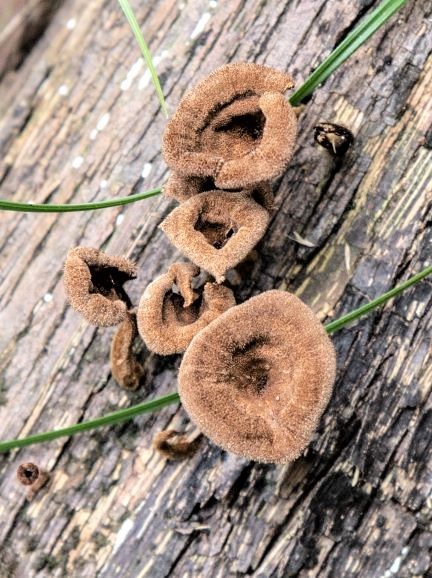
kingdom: Fungi
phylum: Basidiomycota
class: Agaricomycetes
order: Polyporales
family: Panaceae
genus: Panus
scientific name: Panus strigellus
